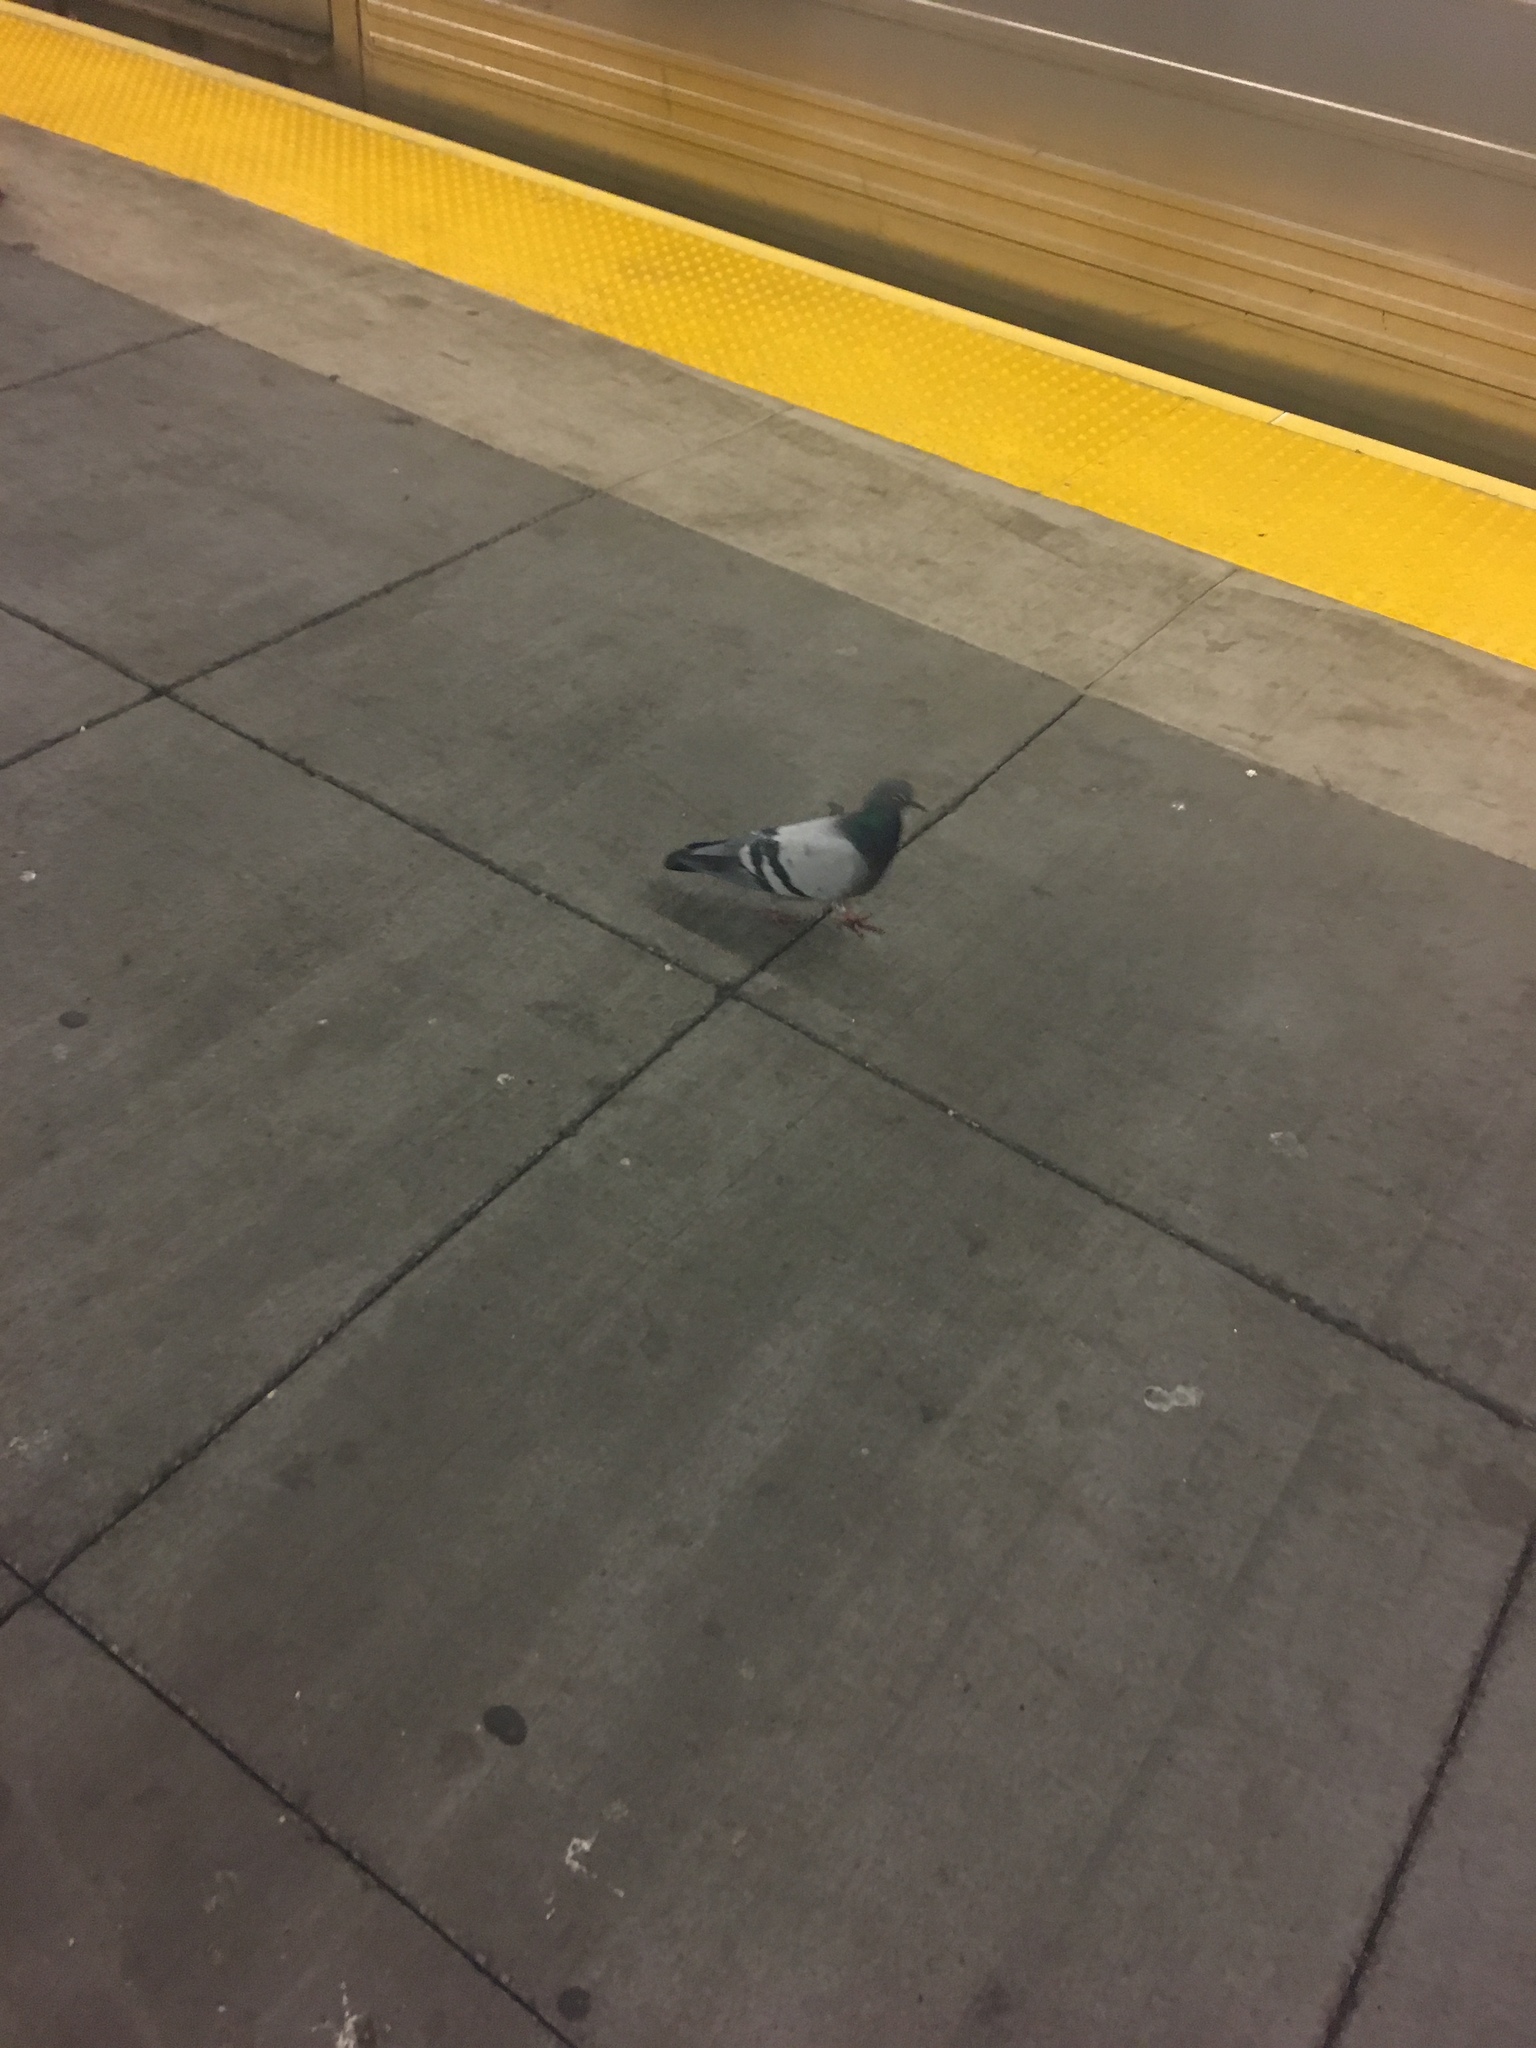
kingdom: Animalia
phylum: Chordata
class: Aves
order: Columbiformes
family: Columbidae
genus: Columba
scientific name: Columba livia
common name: Rock pigeon
